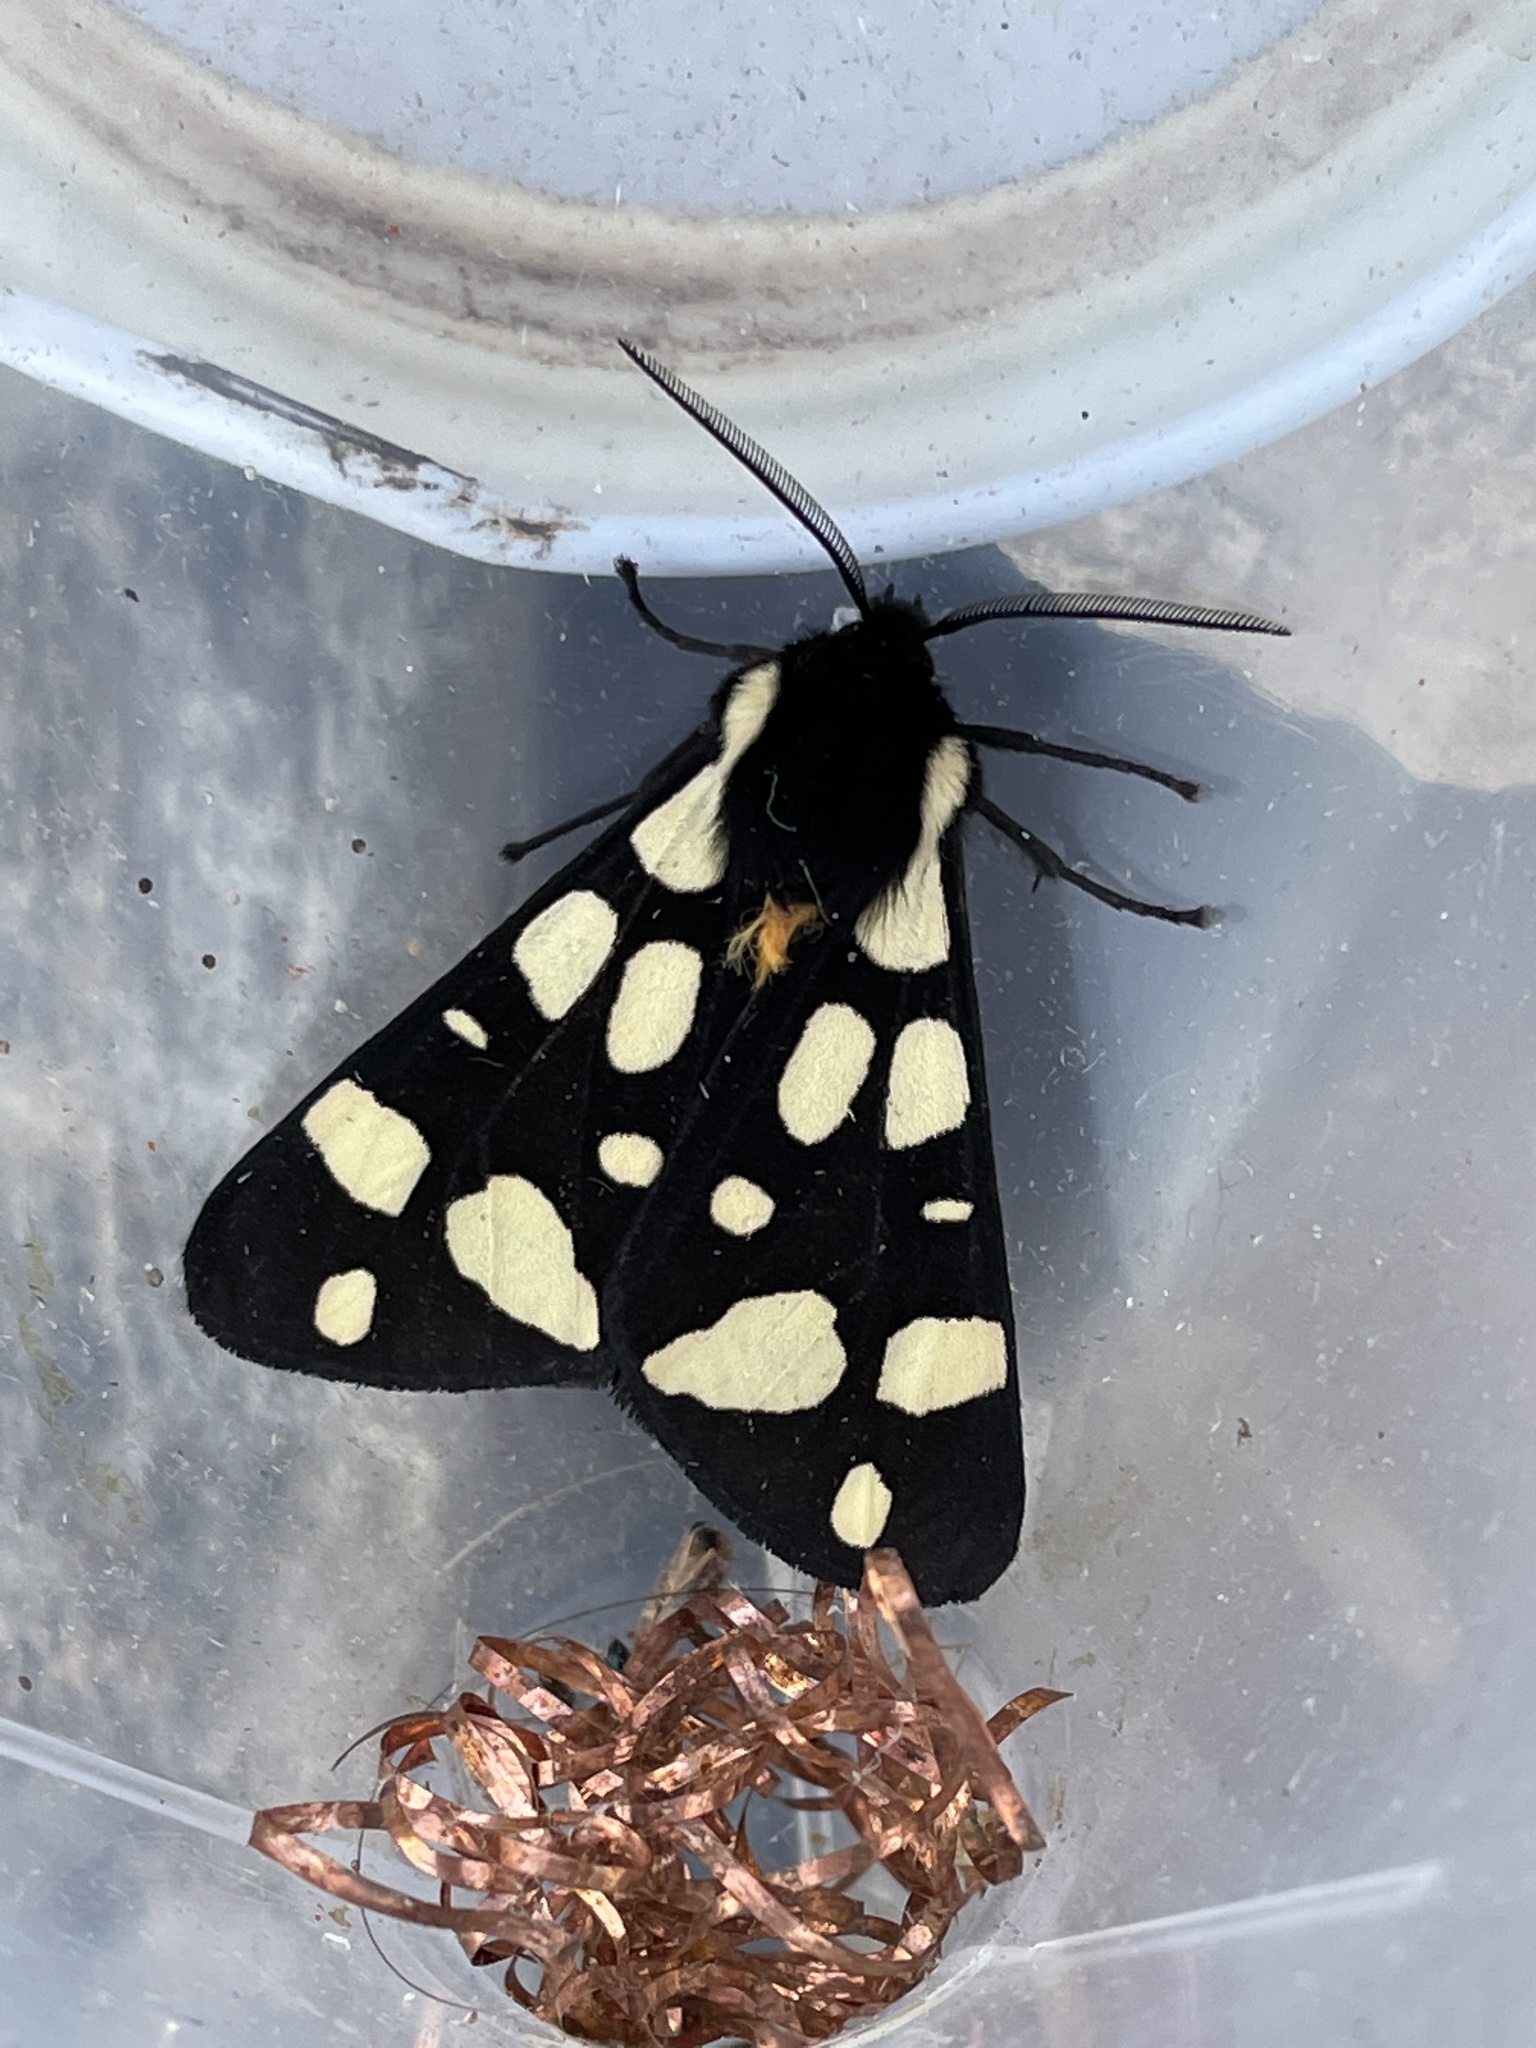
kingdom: Animalia
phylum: Arthropoda
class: Insecta
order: Lepidoptera
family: Erebidae
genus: Epicallia
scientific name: Epicallia villica
